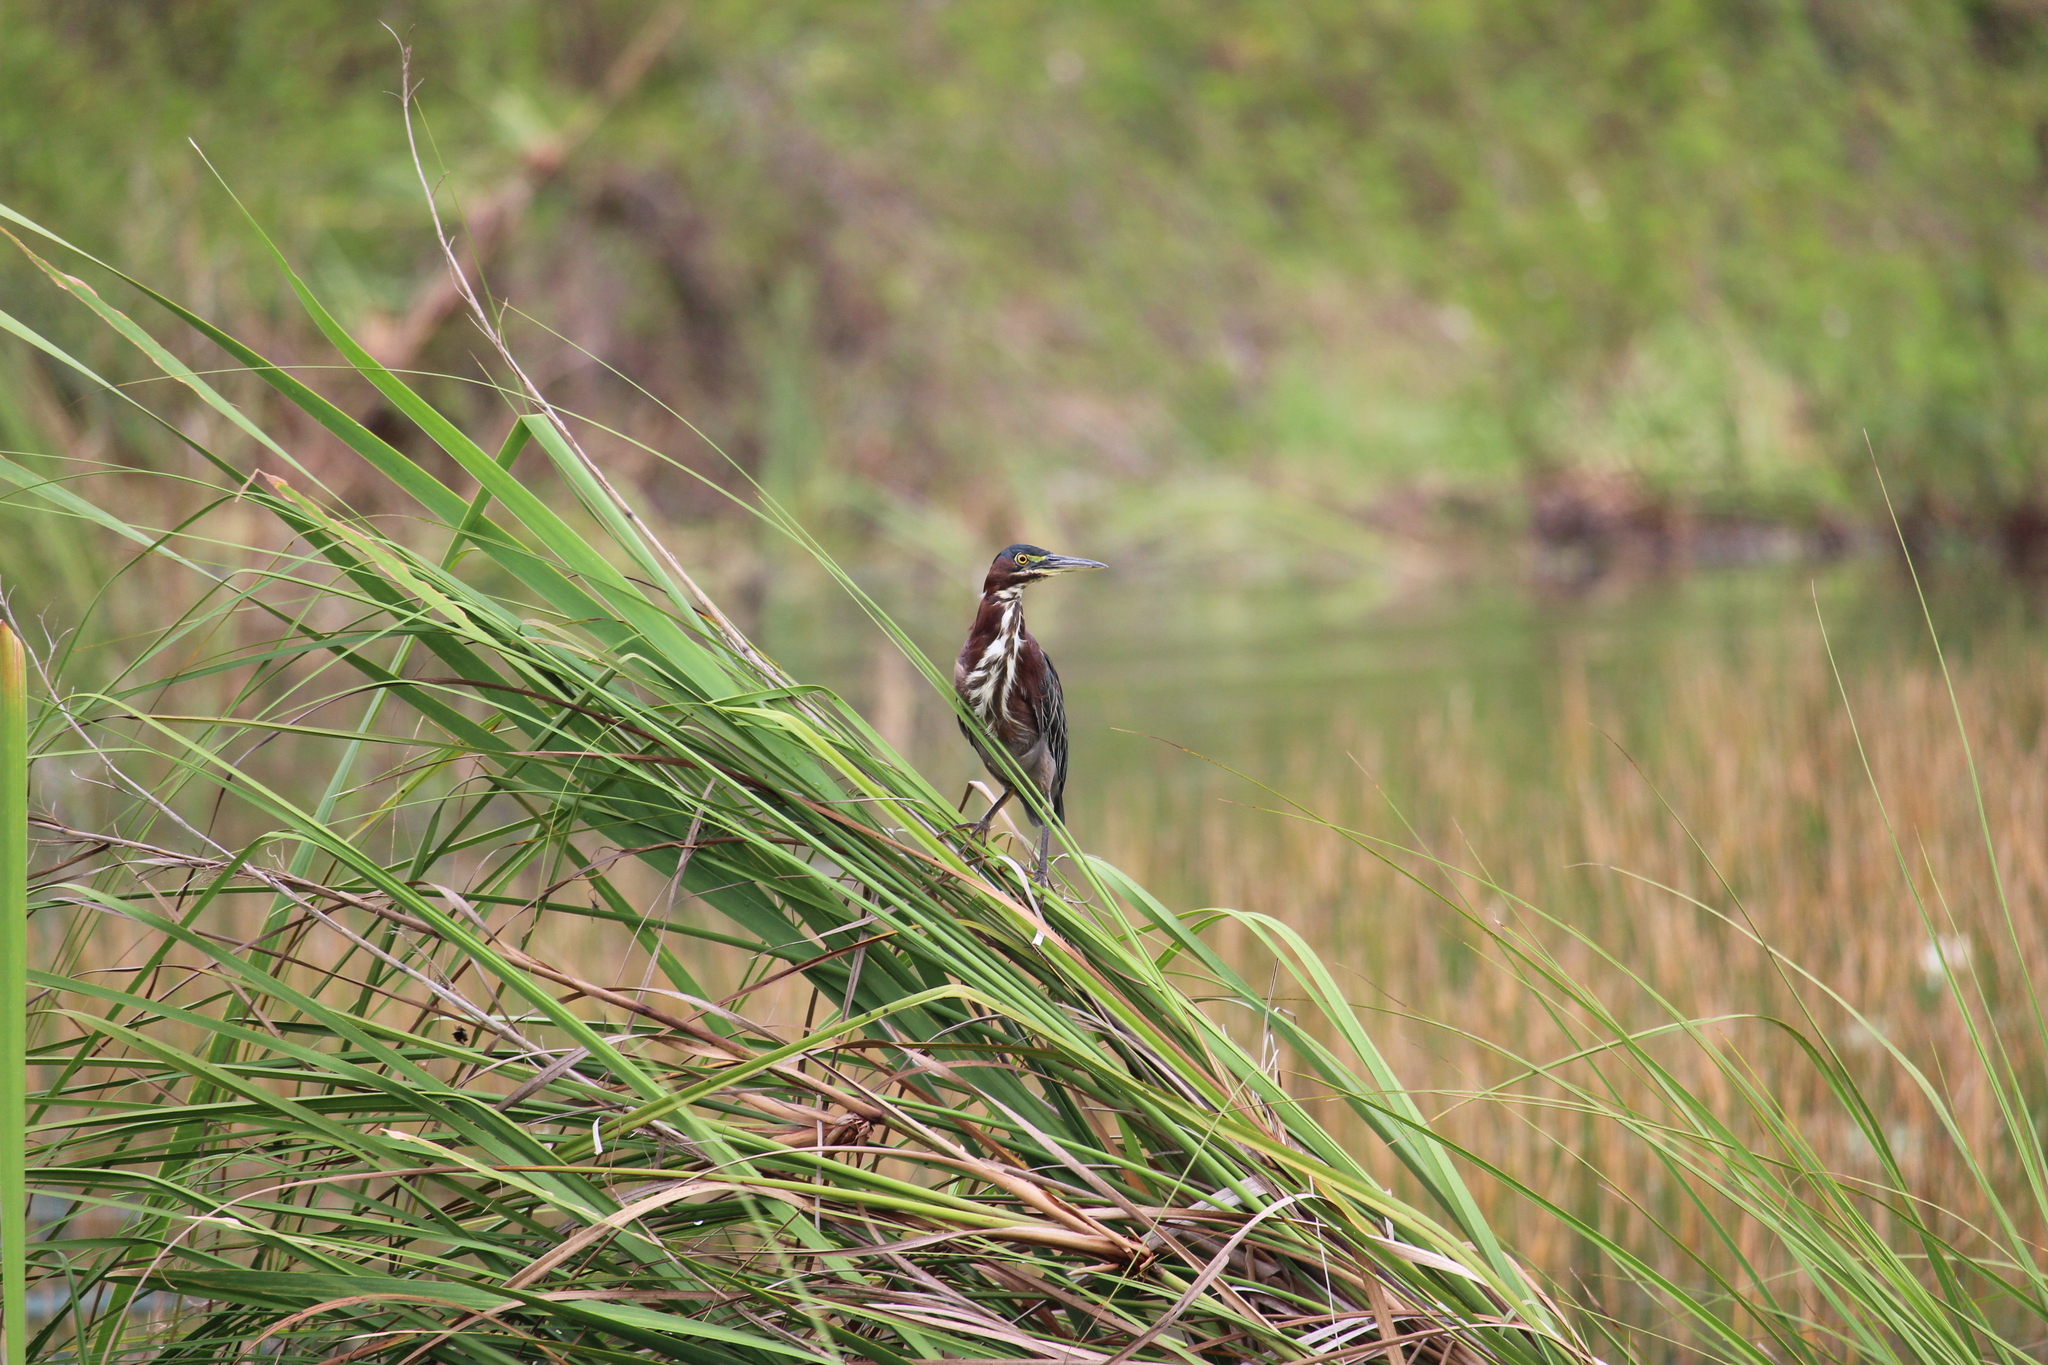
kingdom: Animalia
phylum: Chordata
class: Aves
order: Pelecaniformes
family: Ardeidae
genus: Butorides
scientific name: Butorides virescens
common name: Green heron
